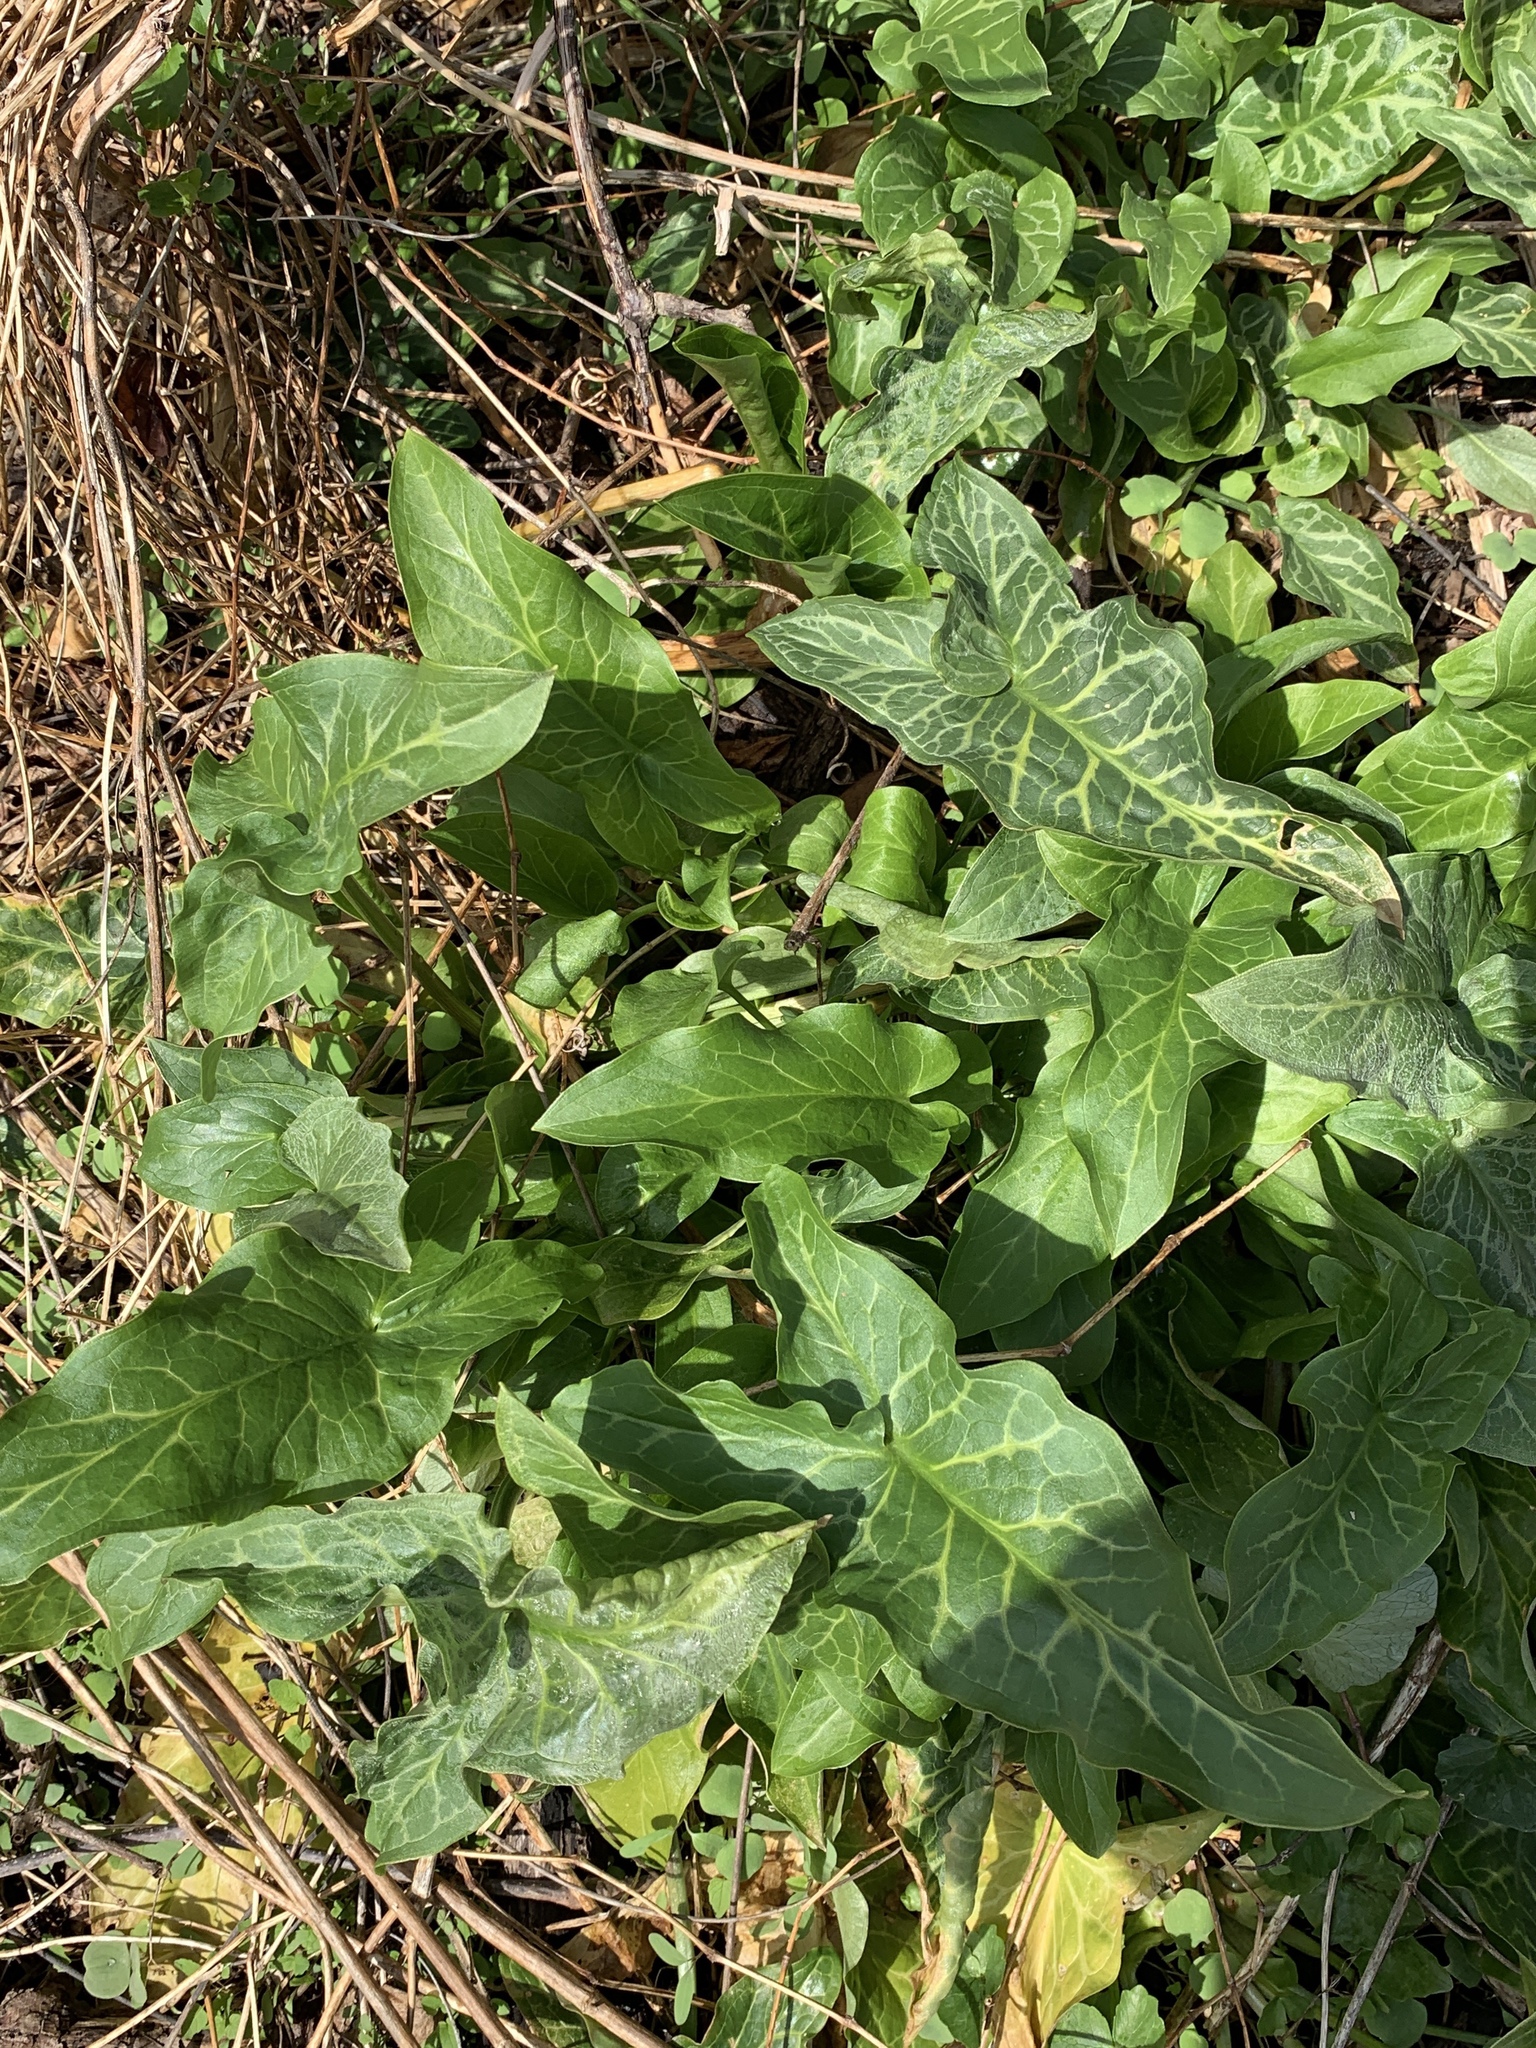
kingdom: Plantae
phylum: Tracheophyta
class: Liliopsida
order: Alismatales
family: Araceae
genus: Arum
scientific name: Arum italicum
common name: Italian lords-and-ladies
